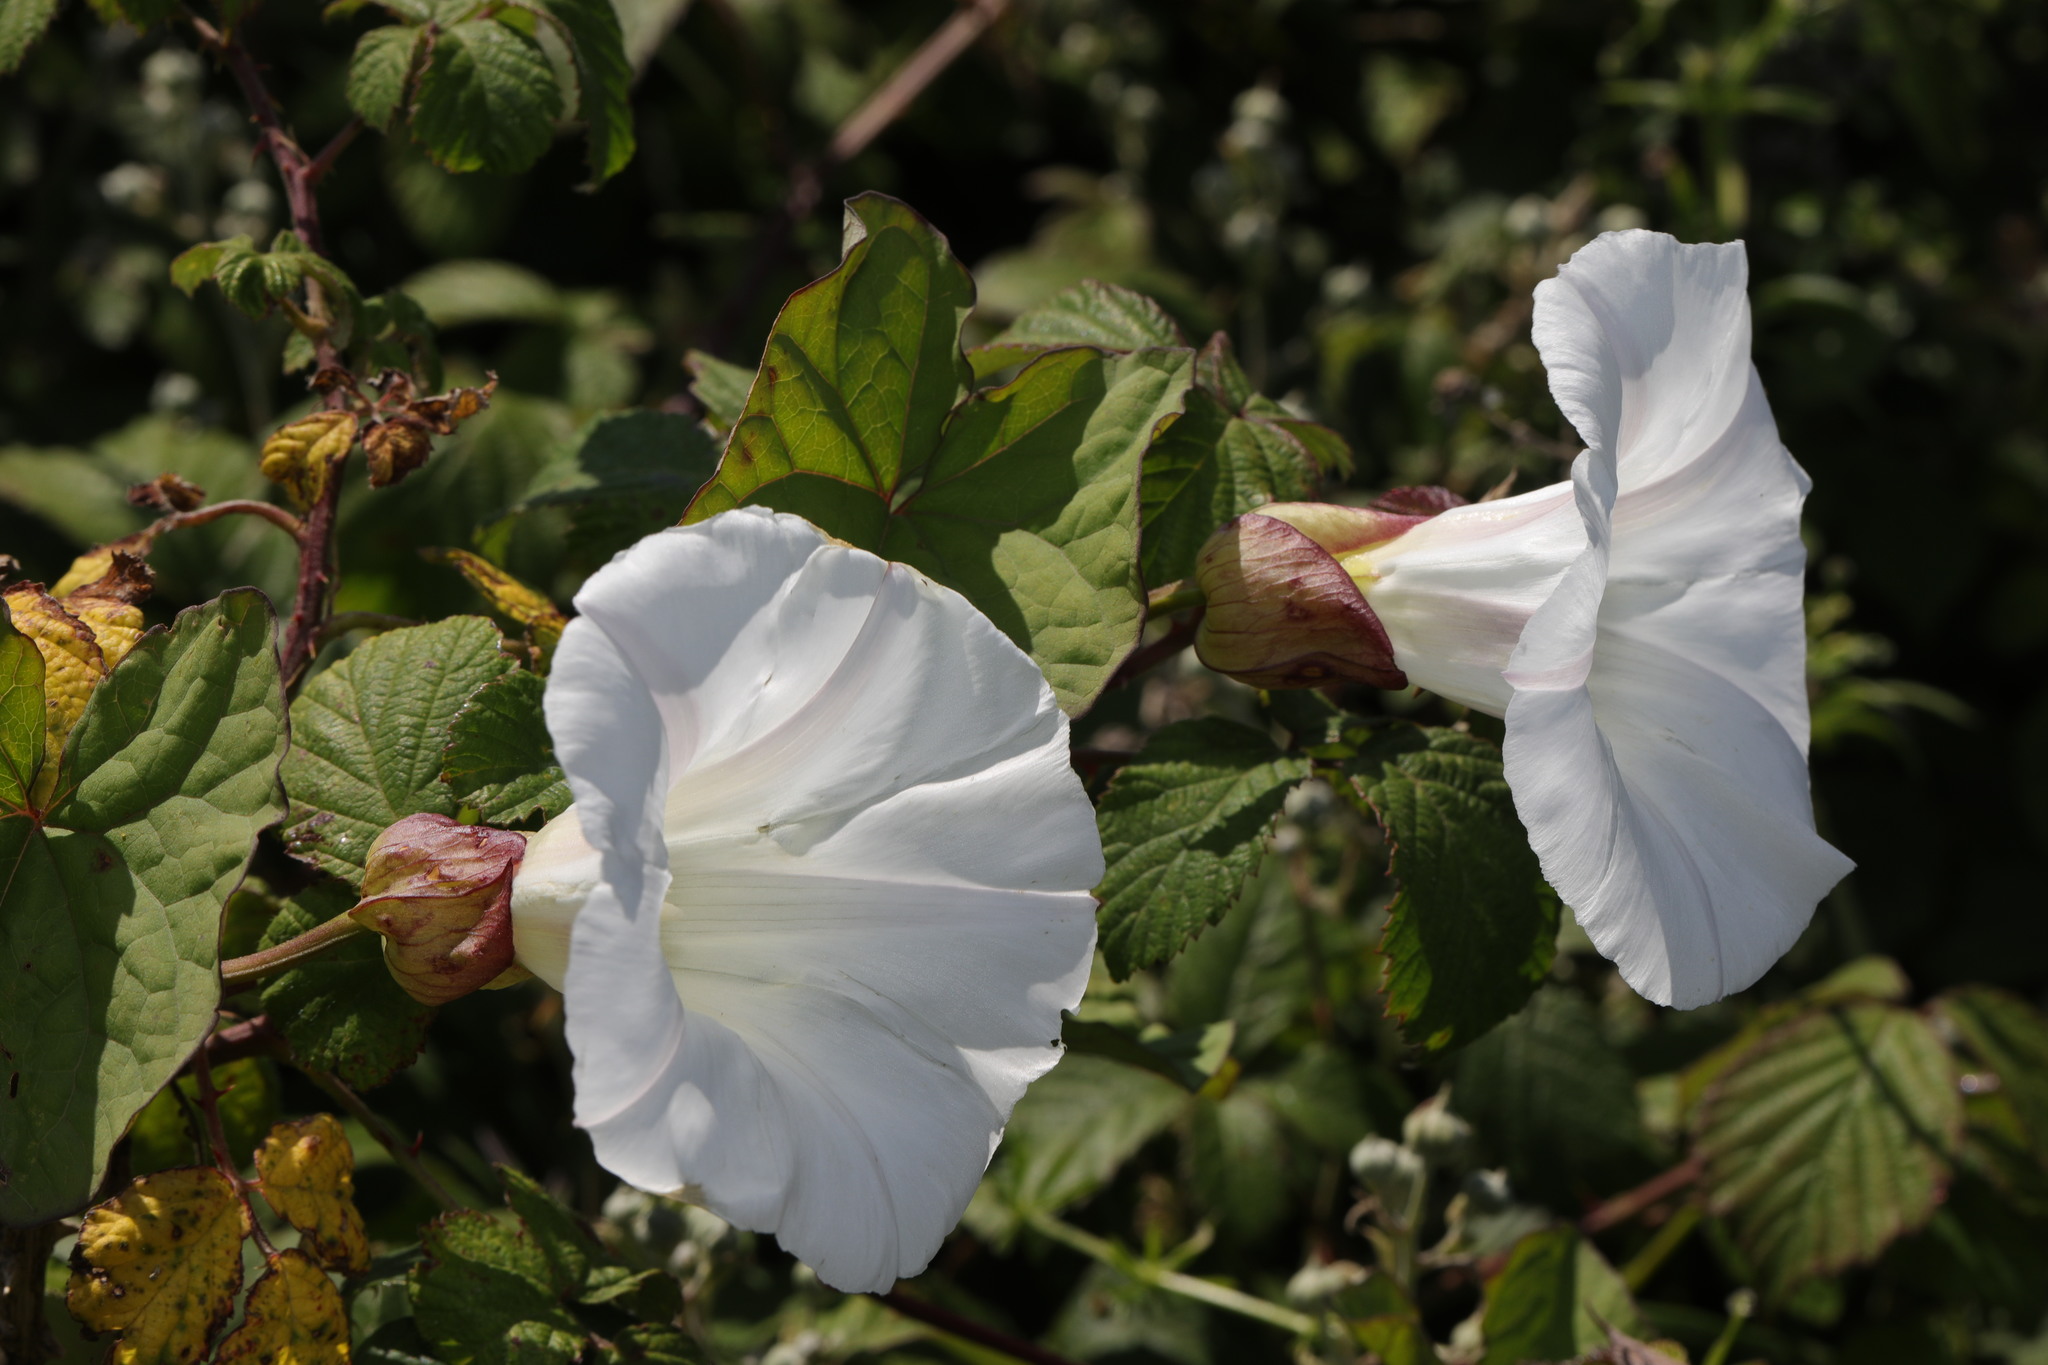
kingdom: Plantae
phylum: Tracheophyta
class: Magnoliopsida
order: Solanales
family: Convolvulaceae
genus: Calystegia
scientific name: Calystegia silvatica
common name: Large bindweed
